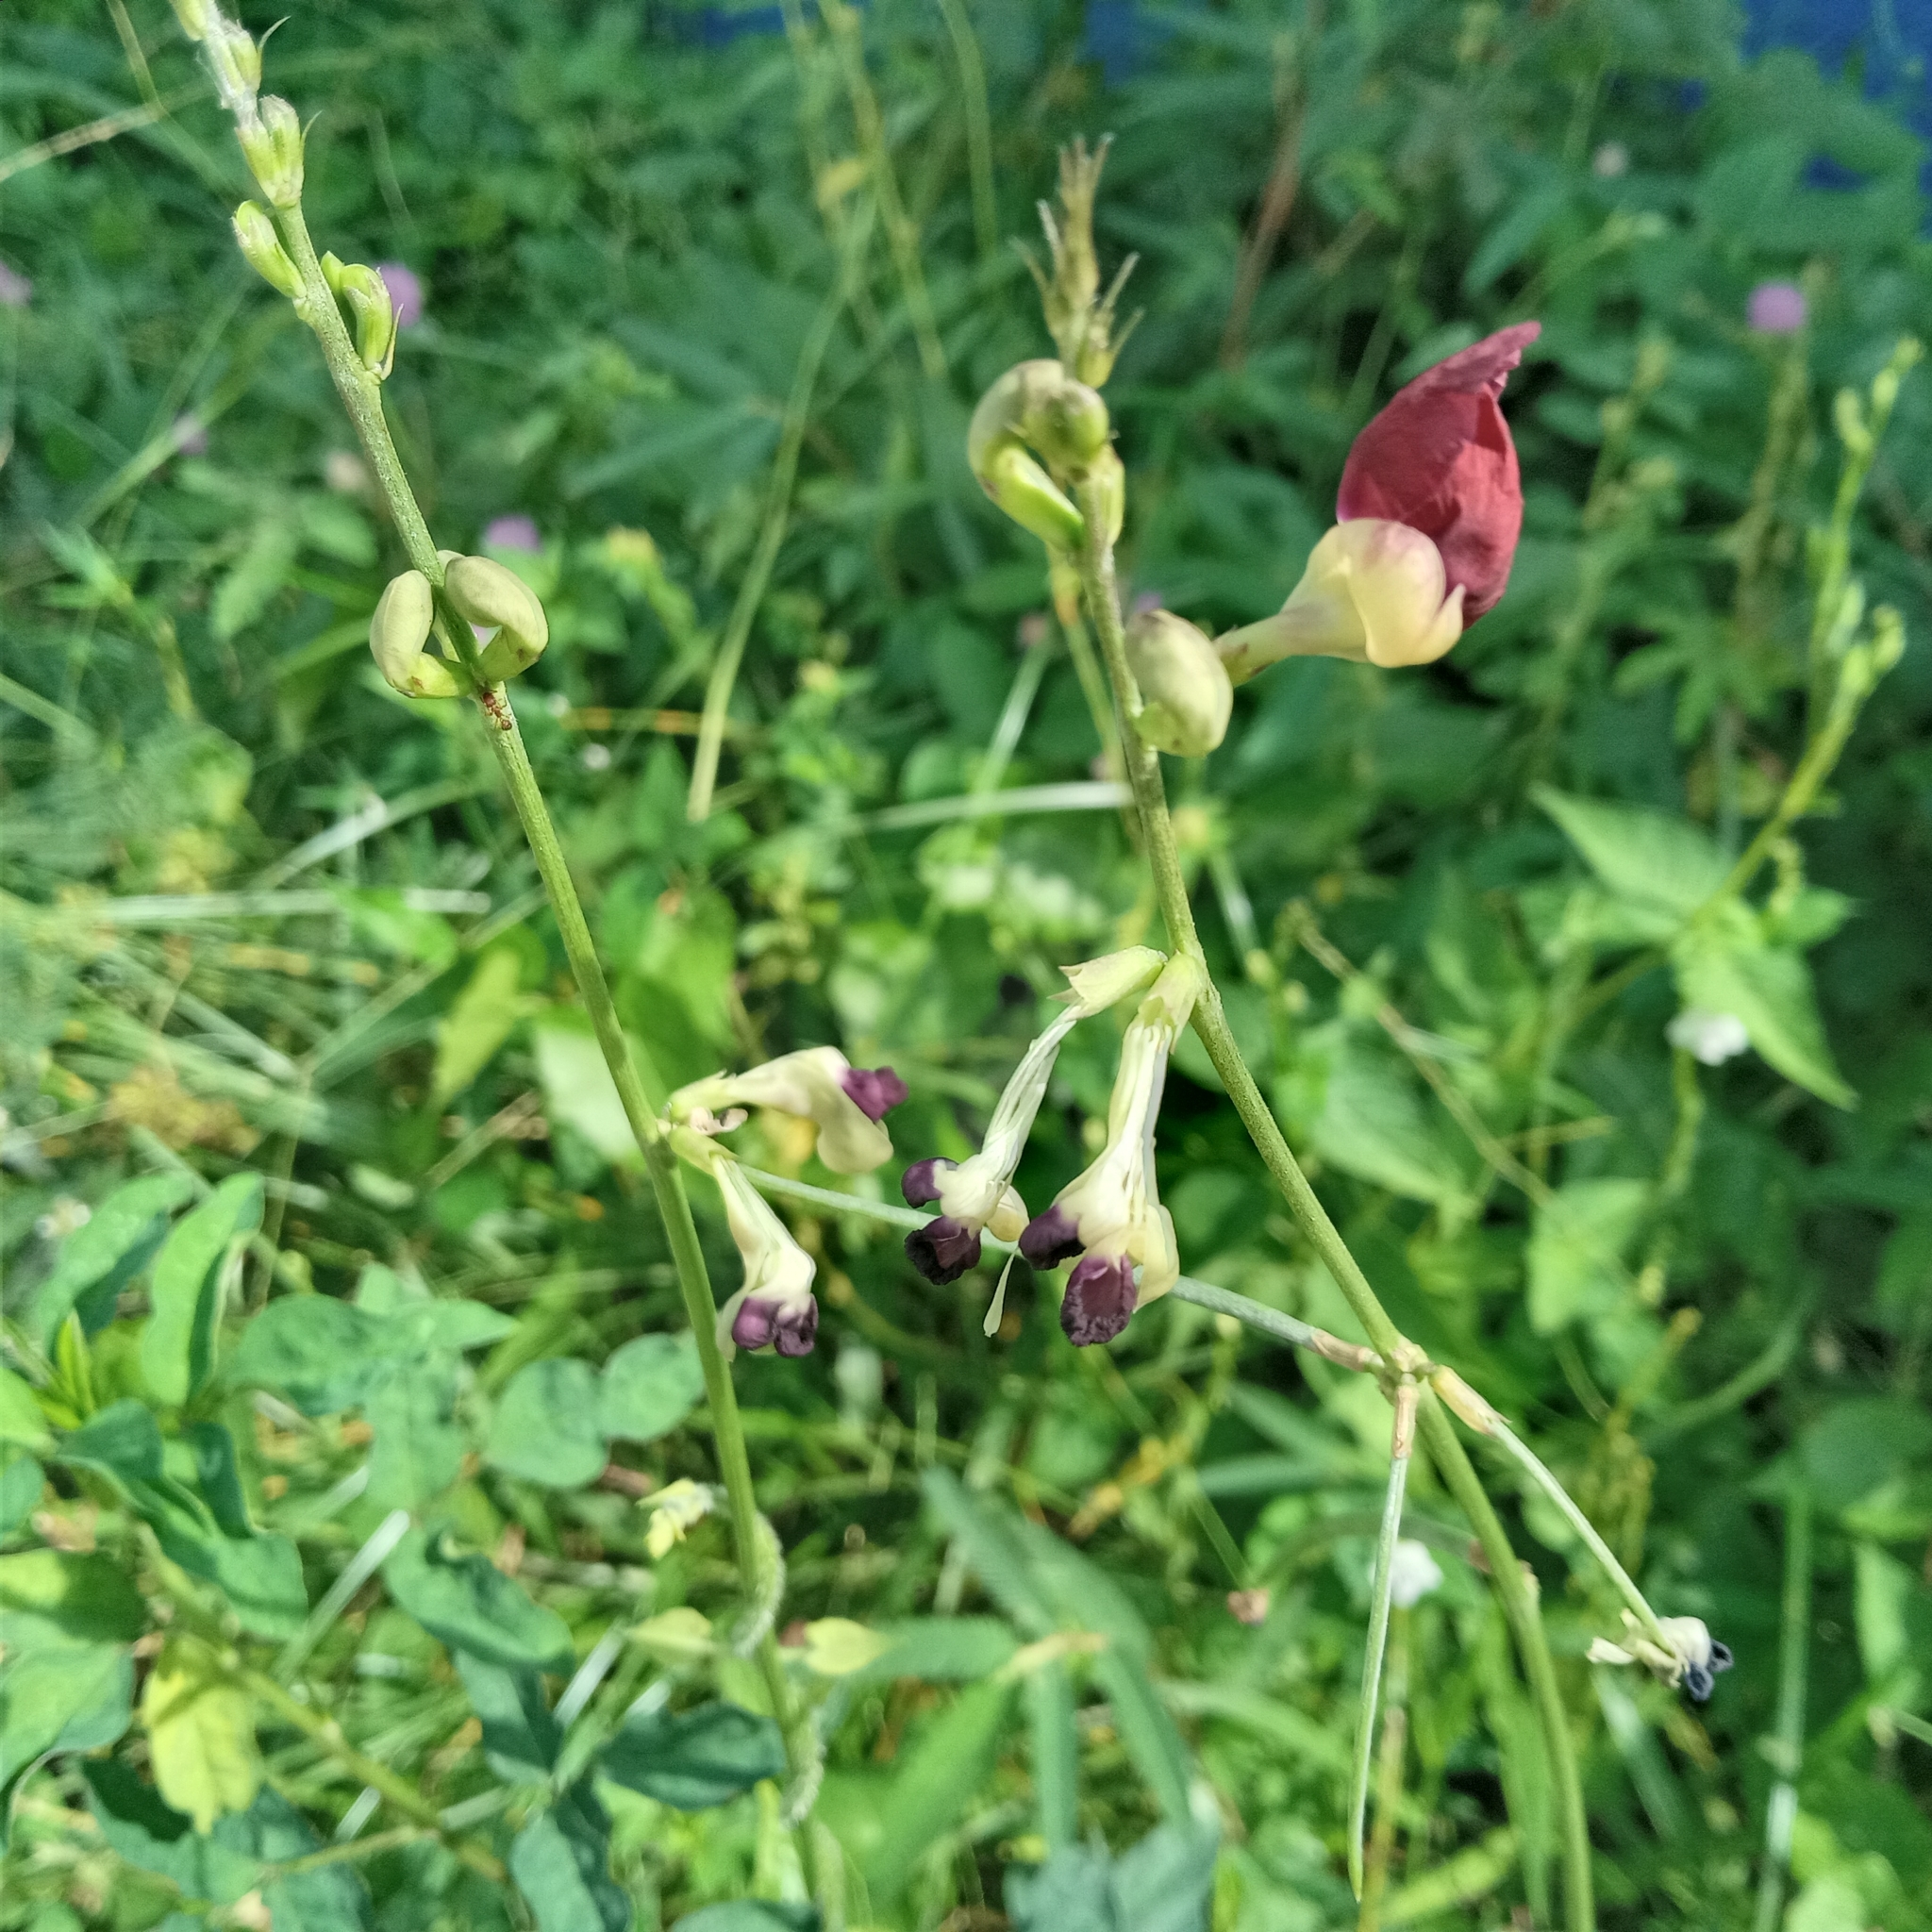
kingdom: Plantae
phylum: Tracheophyta
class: Magnoliopsida
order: Fabales
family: Fabaceae
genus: Macroptilium
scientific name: Macroptilium lathyroides
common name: Wild bushbean
